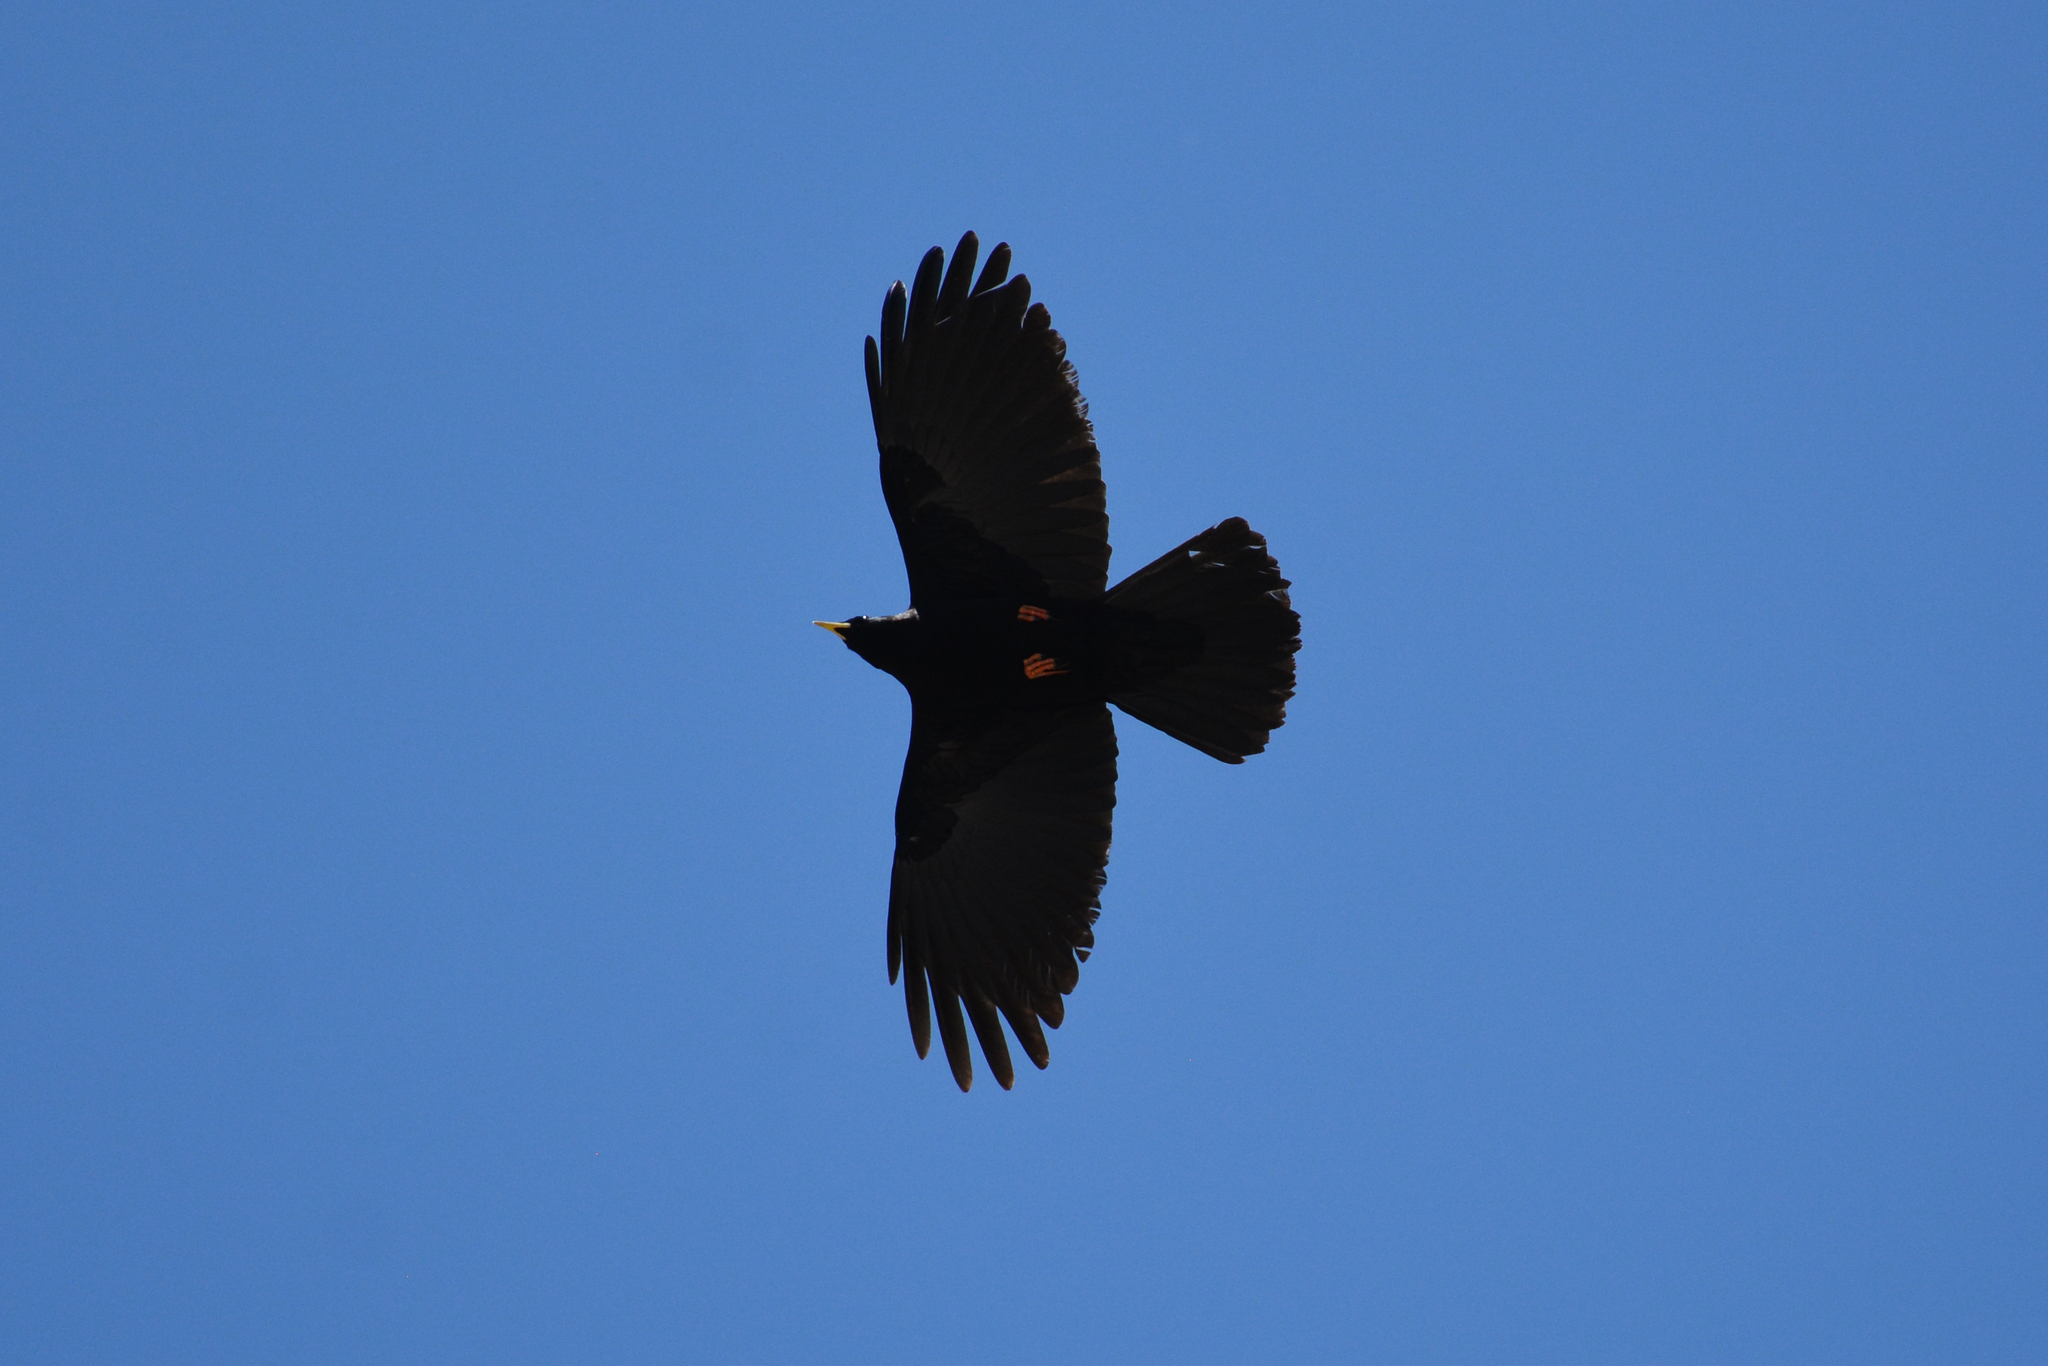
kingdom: Animalia
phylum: Chordata
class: Aves
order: Passeriformes
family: Corvidae
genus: Pyrrhocorax
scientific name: Pyrrhocorax graculus
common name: Alpine chough
